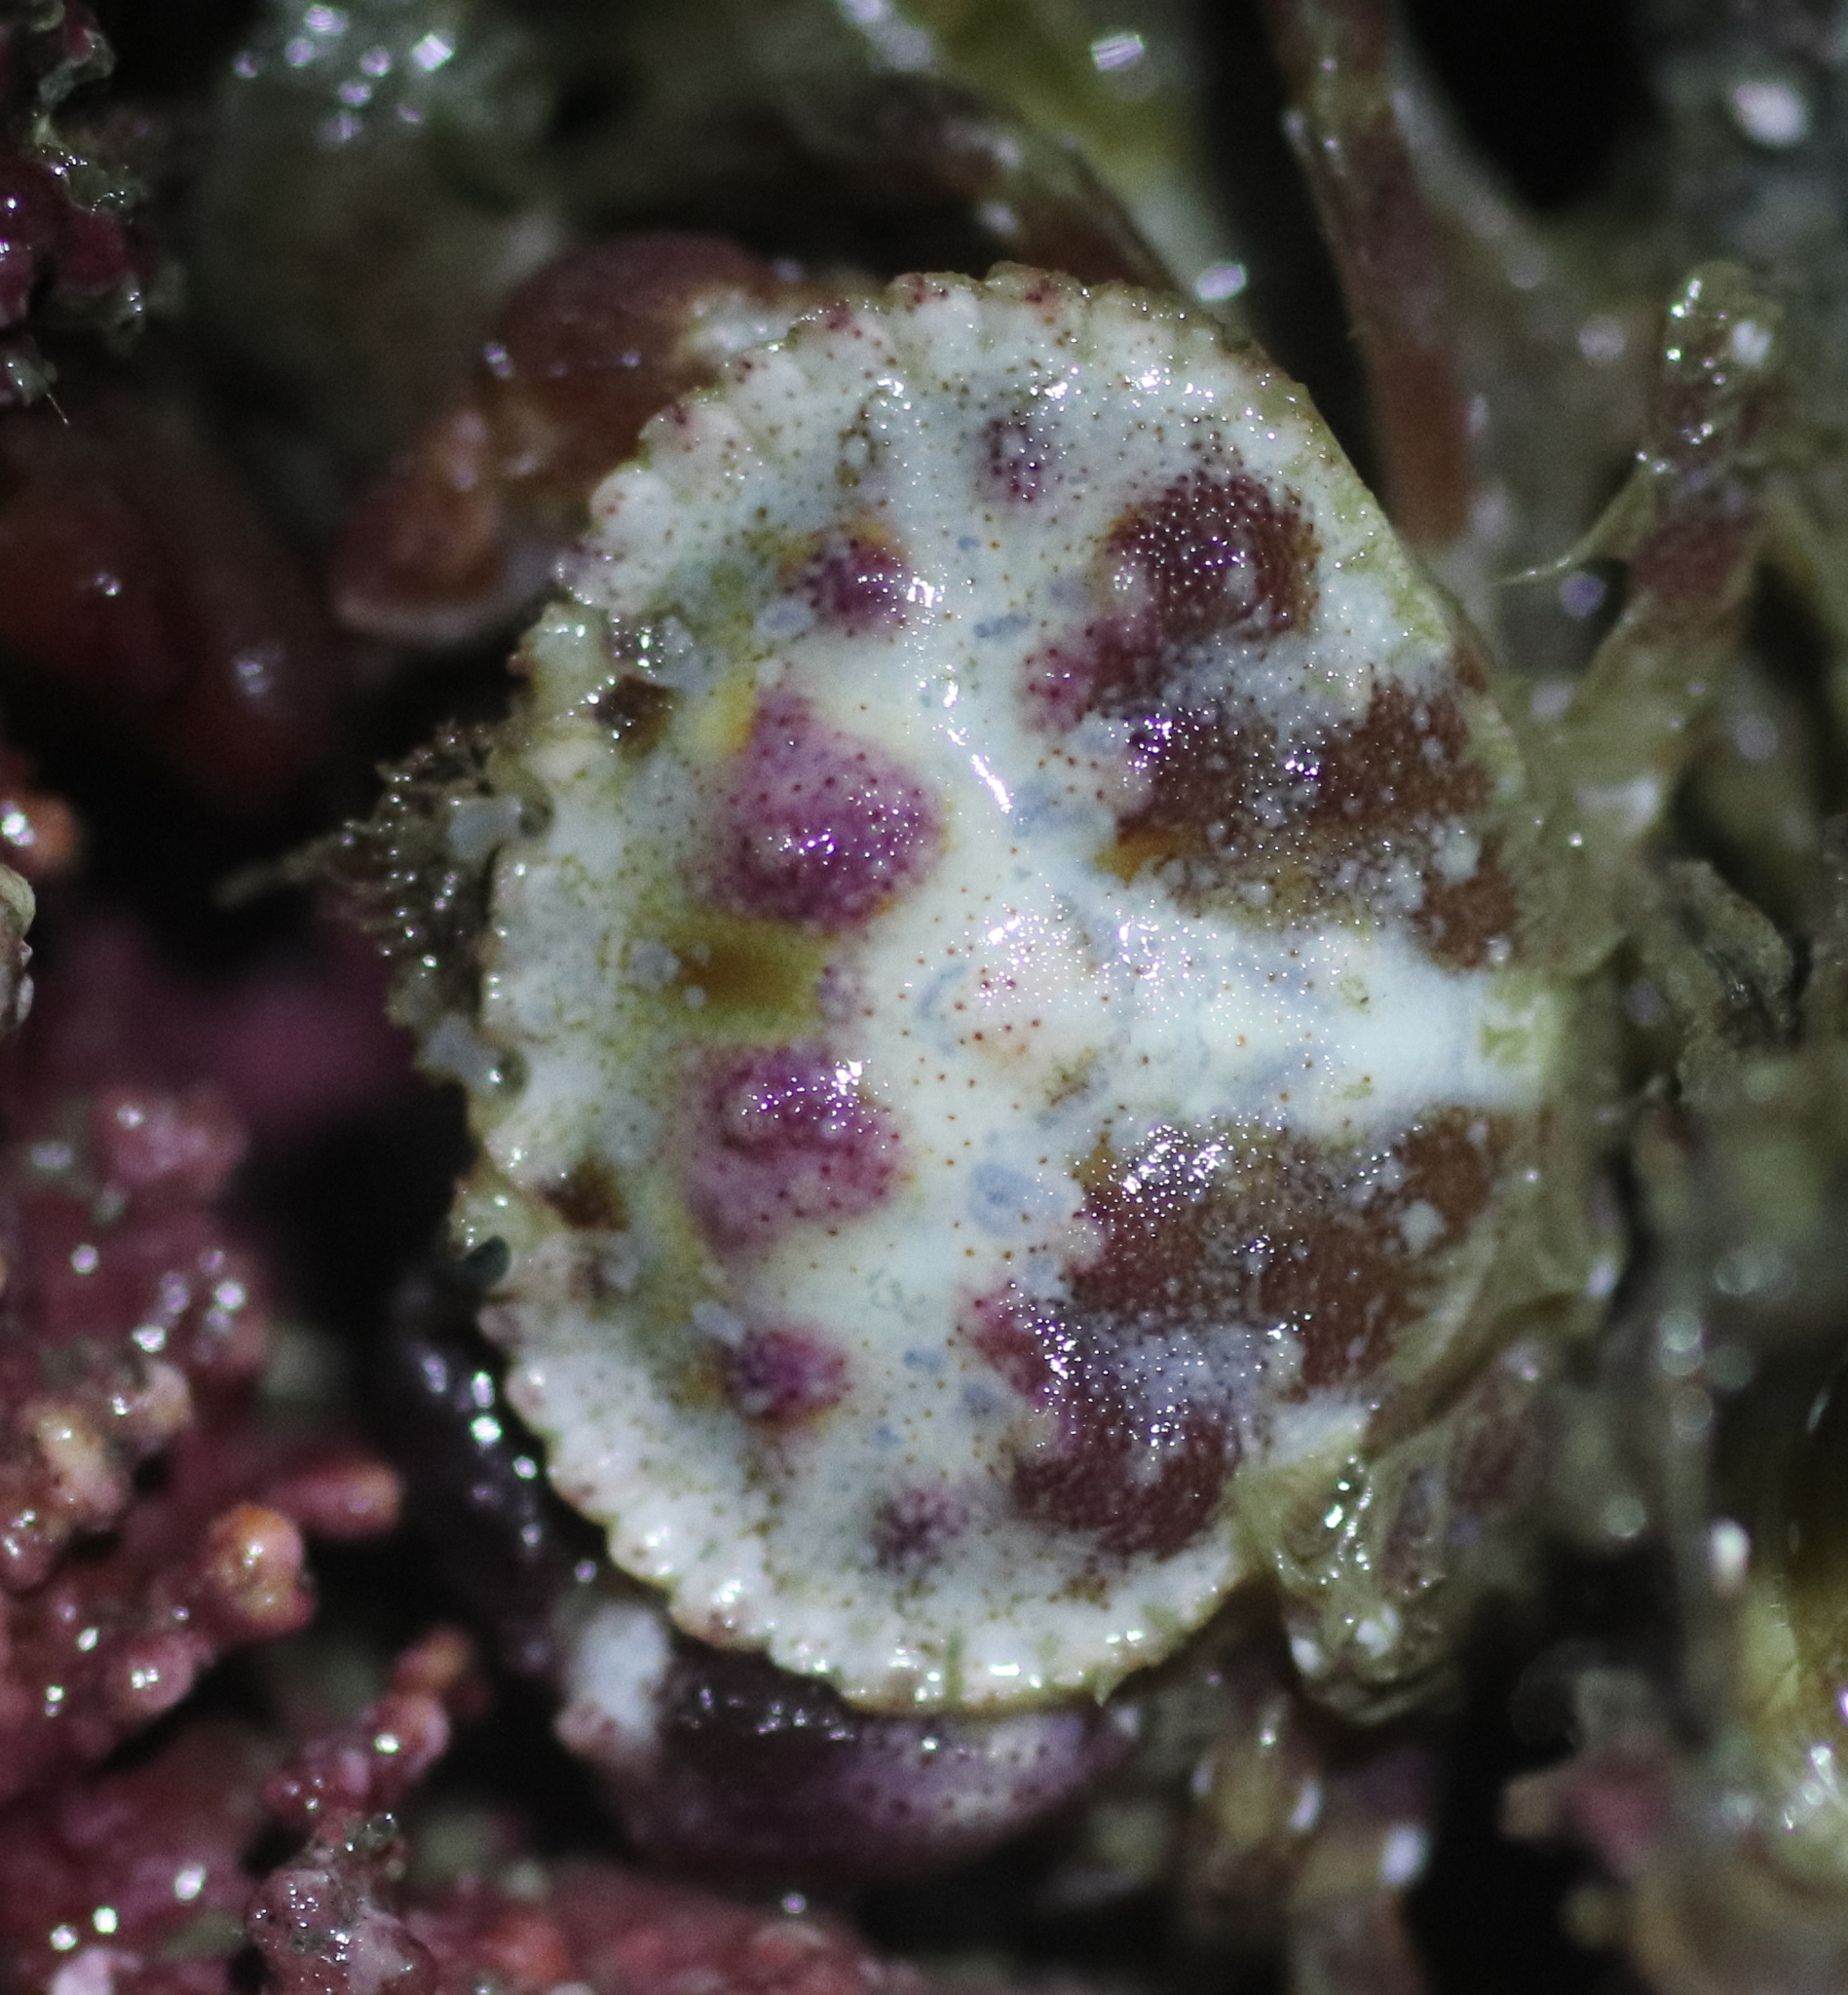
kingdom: Animalia
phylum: Arthropoda
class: Malacostraca
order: Decapoda
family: Cancridae
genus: Glebocarcinus
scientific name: Glebocarcinus oregonensis
